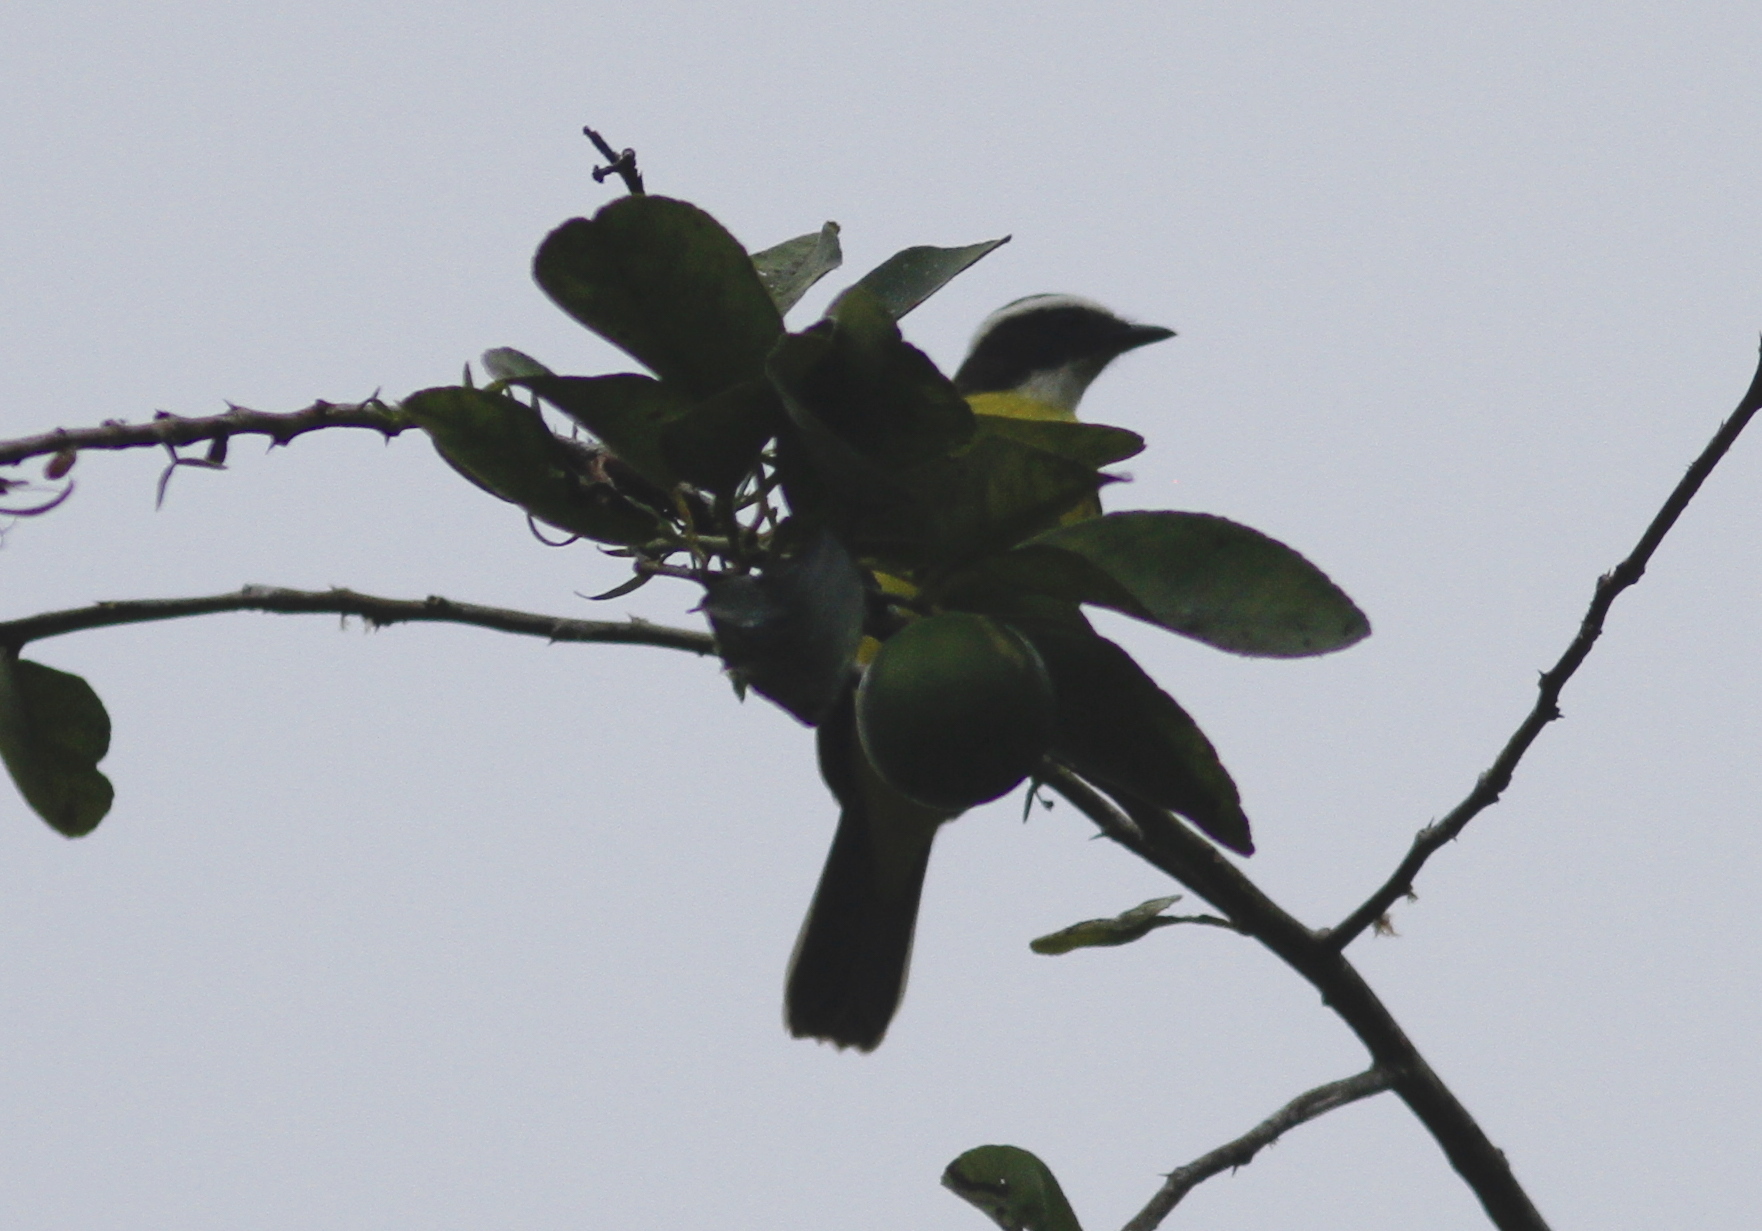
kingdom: Animalia
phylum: Chordata
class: Aves
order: Passeriformes
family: Tyrannidae
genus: Myiozetetes
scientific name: Myiozetetes cayanensis
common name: Rusty-margined flycatcher
